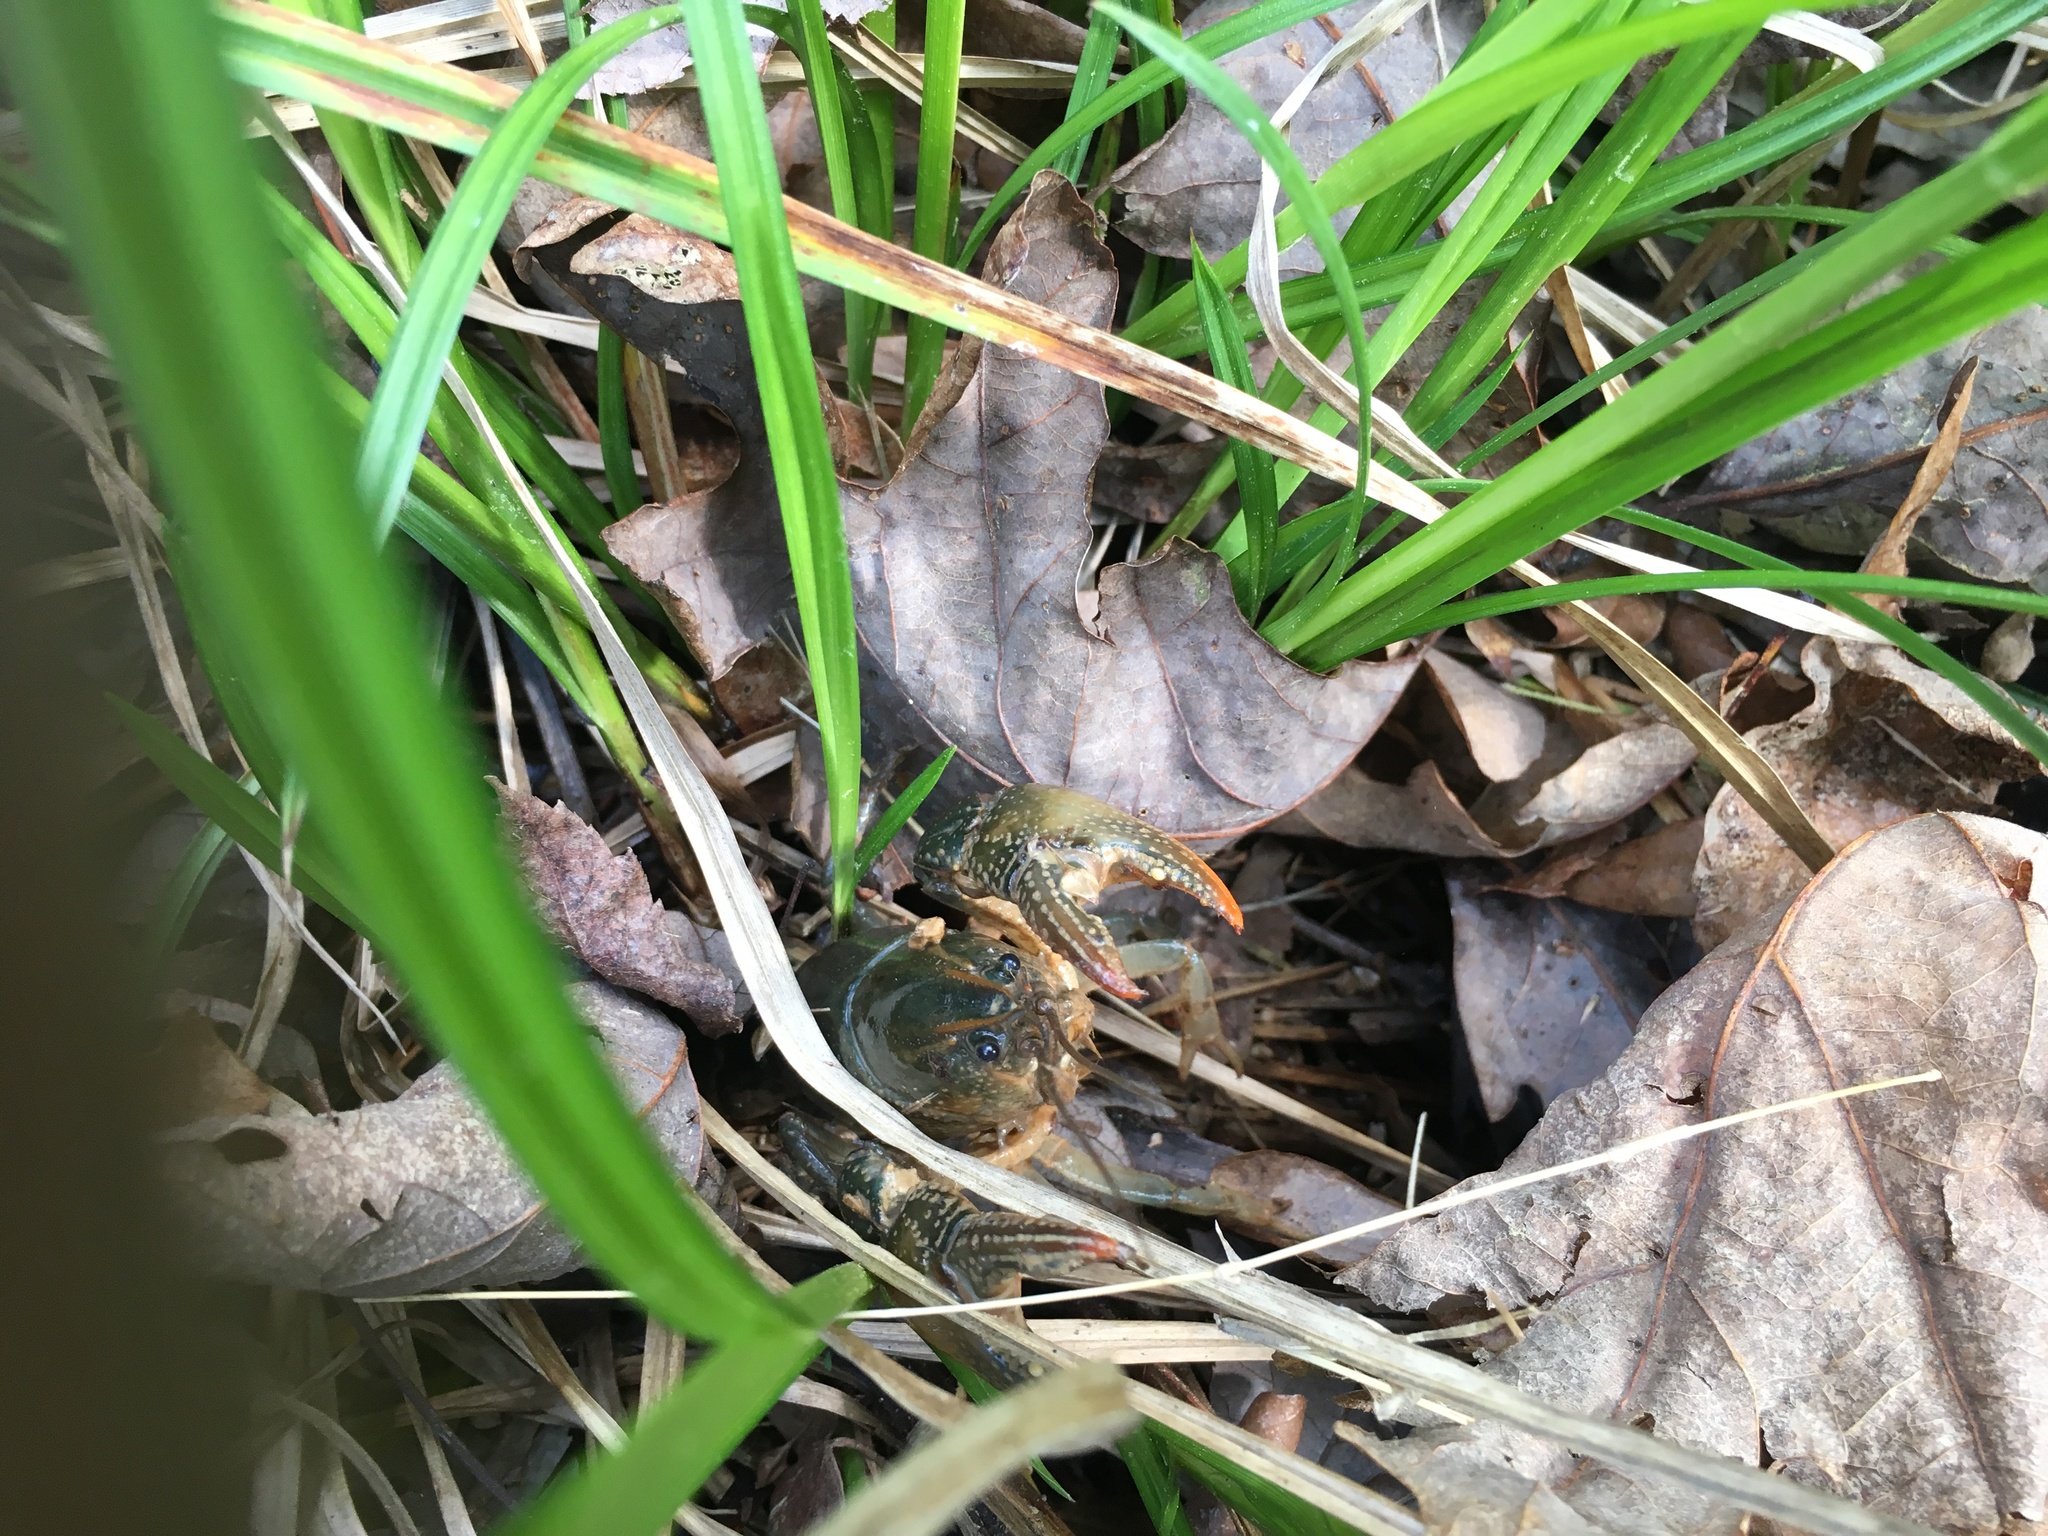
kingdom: Animalia
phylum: Arthropoda
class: Malacostraca
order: Decapoda
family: Cambaridae
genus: Lacunicambarus
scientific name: Lacunicambarus diogenes
